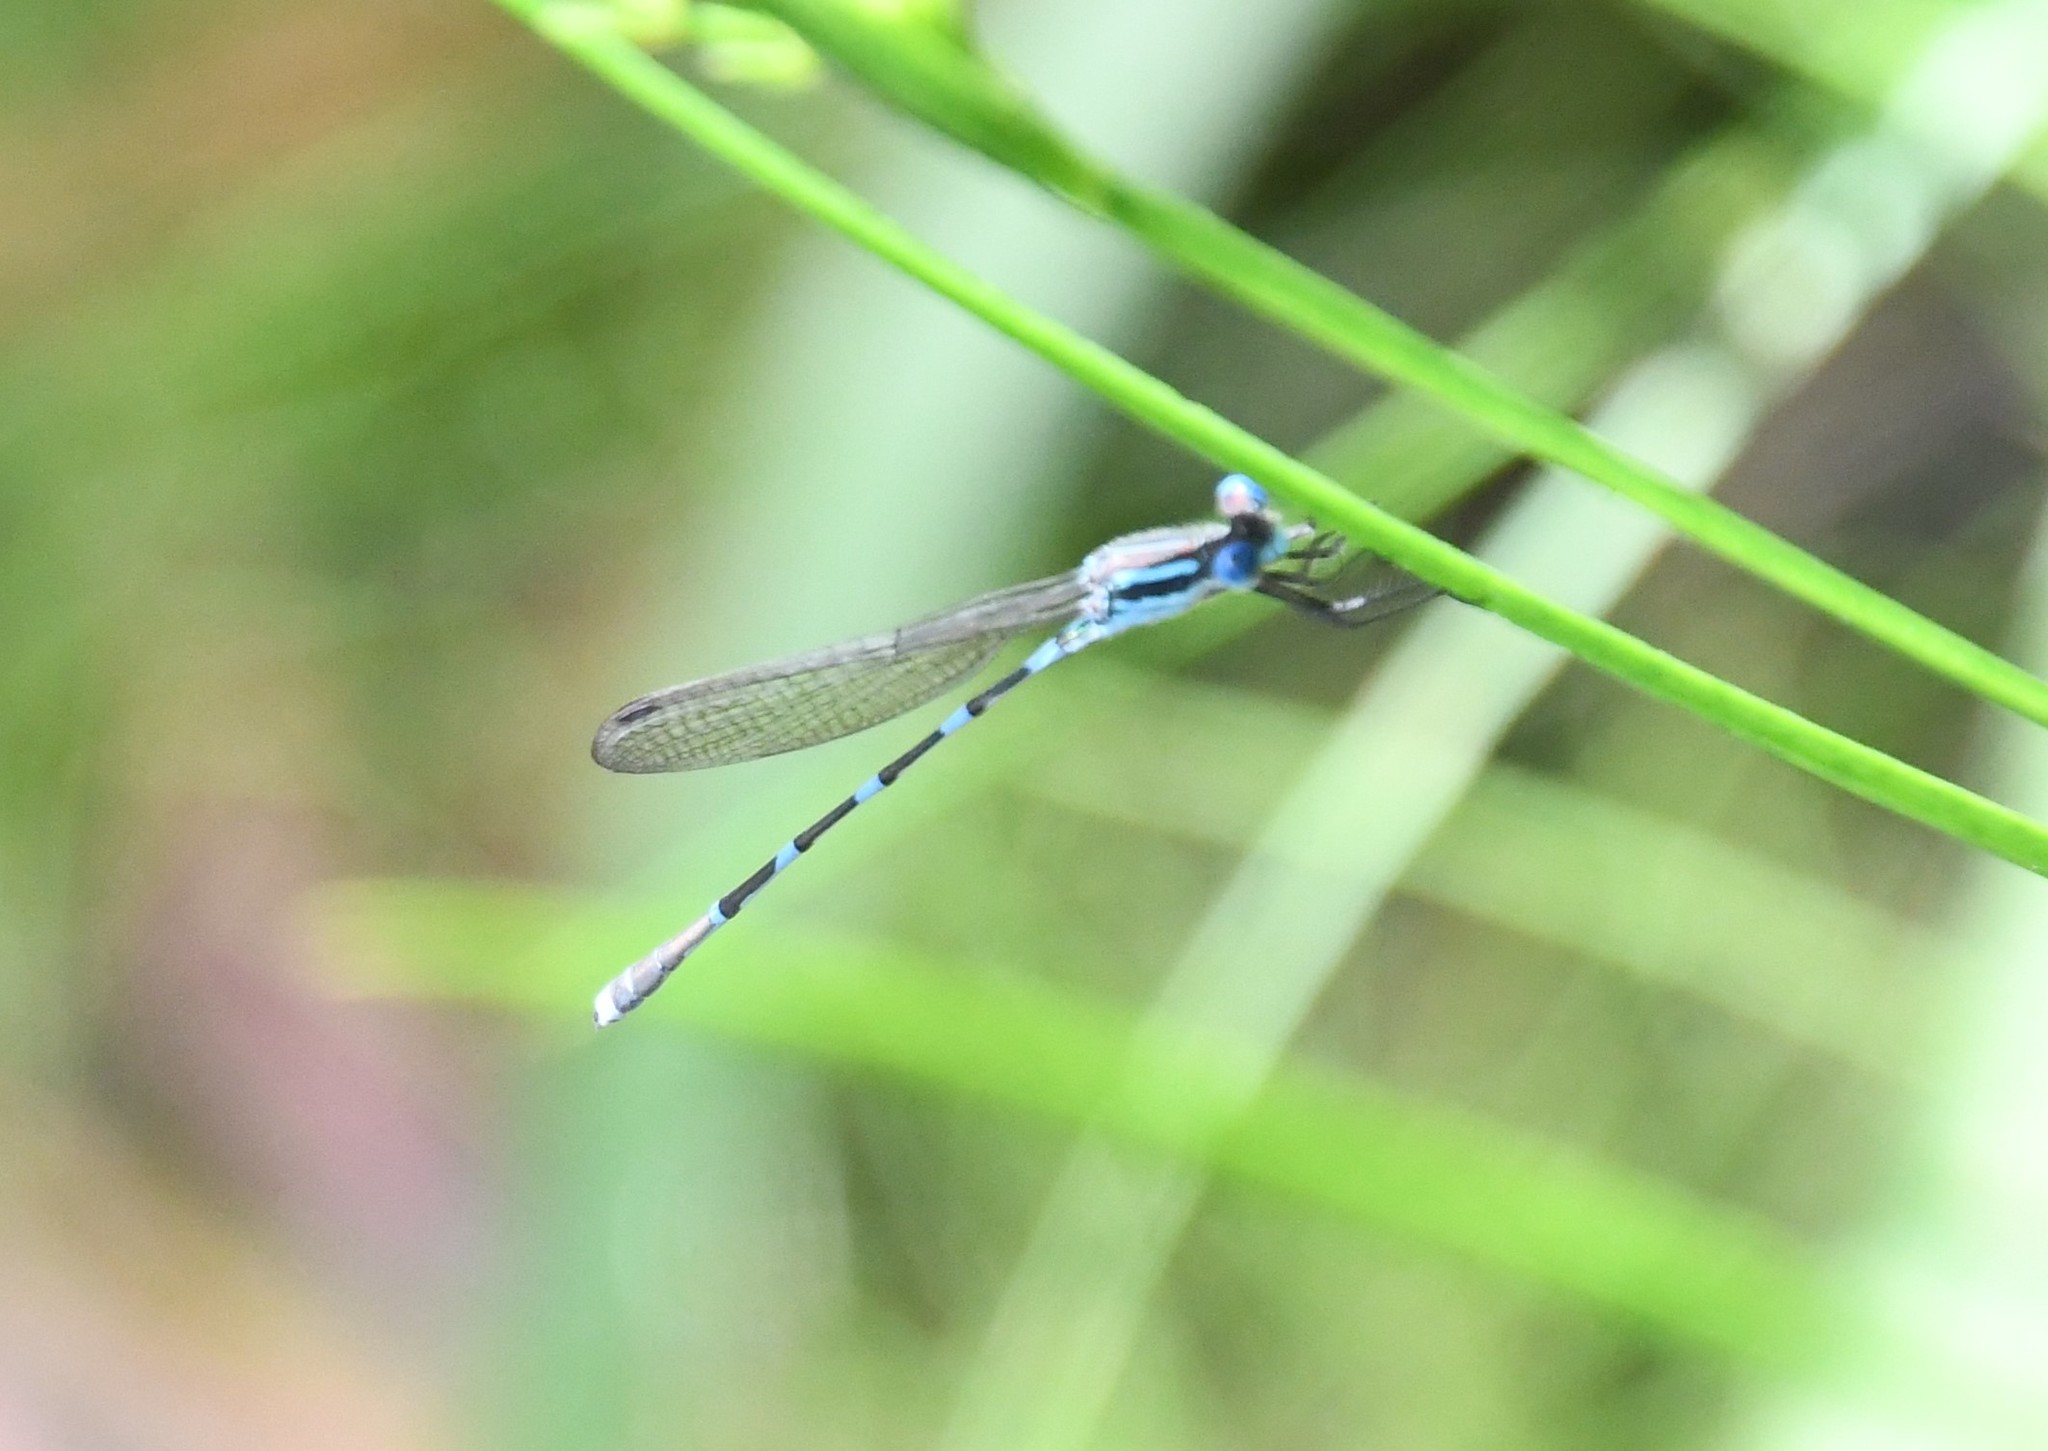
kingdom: Animalia
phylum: Arthropoda
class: Insecta
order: Odonata
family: Lestidae
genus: Austrolestes
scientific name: Austrolestes leda
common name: Wandering ringtail
